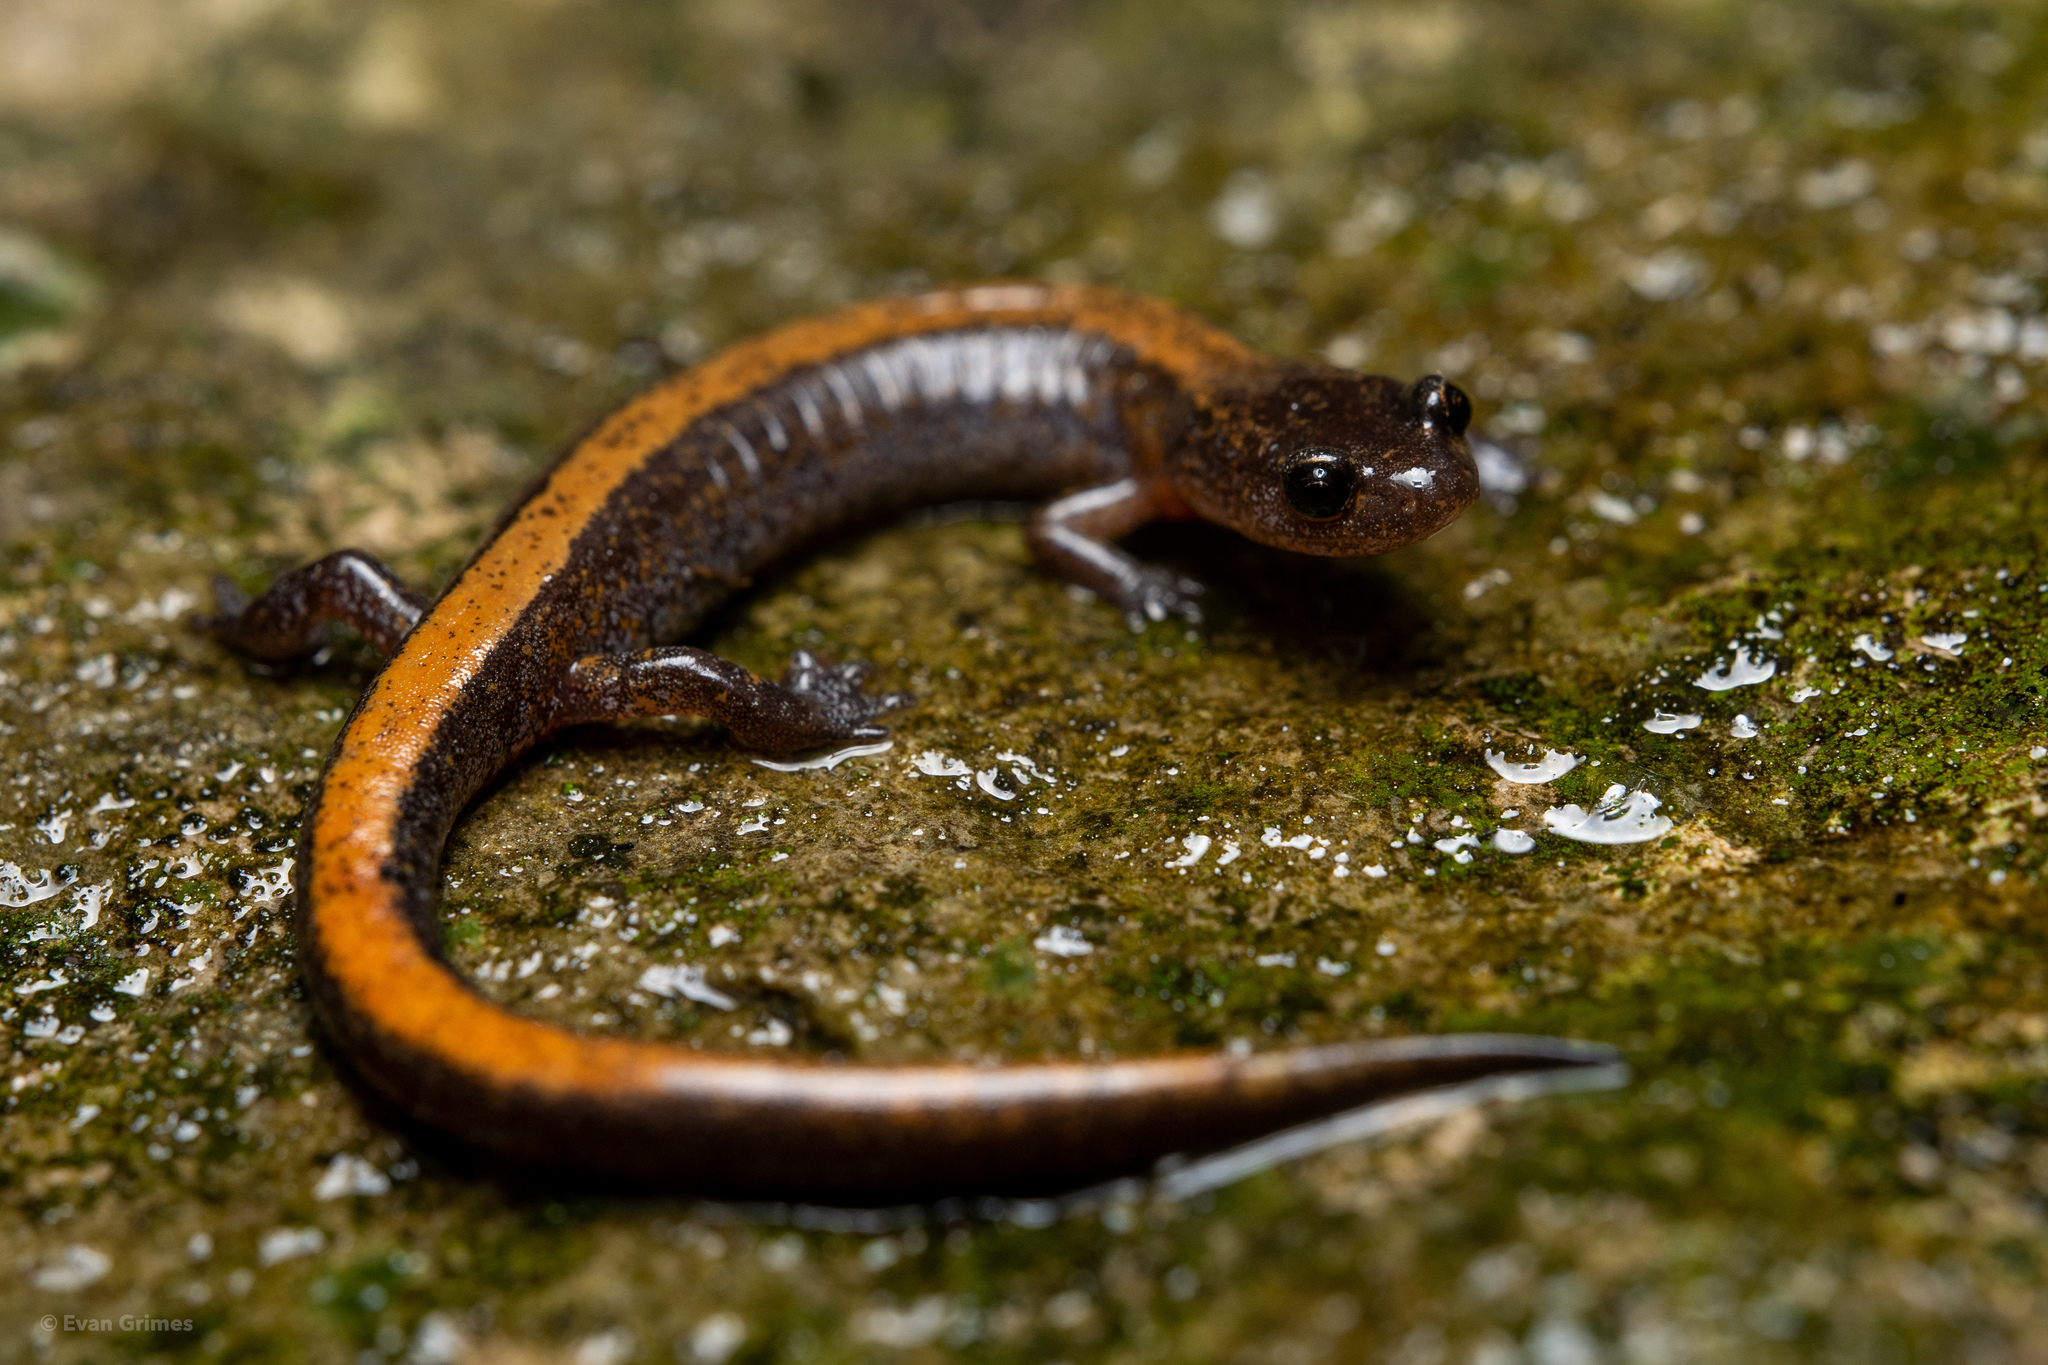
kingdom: Animalia
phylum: Chordata
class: Amphibia
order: Caudata
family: Plethodontidae
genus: Plethodon
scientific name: Plethodon dorsalis
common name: Northern zigzag salamander
